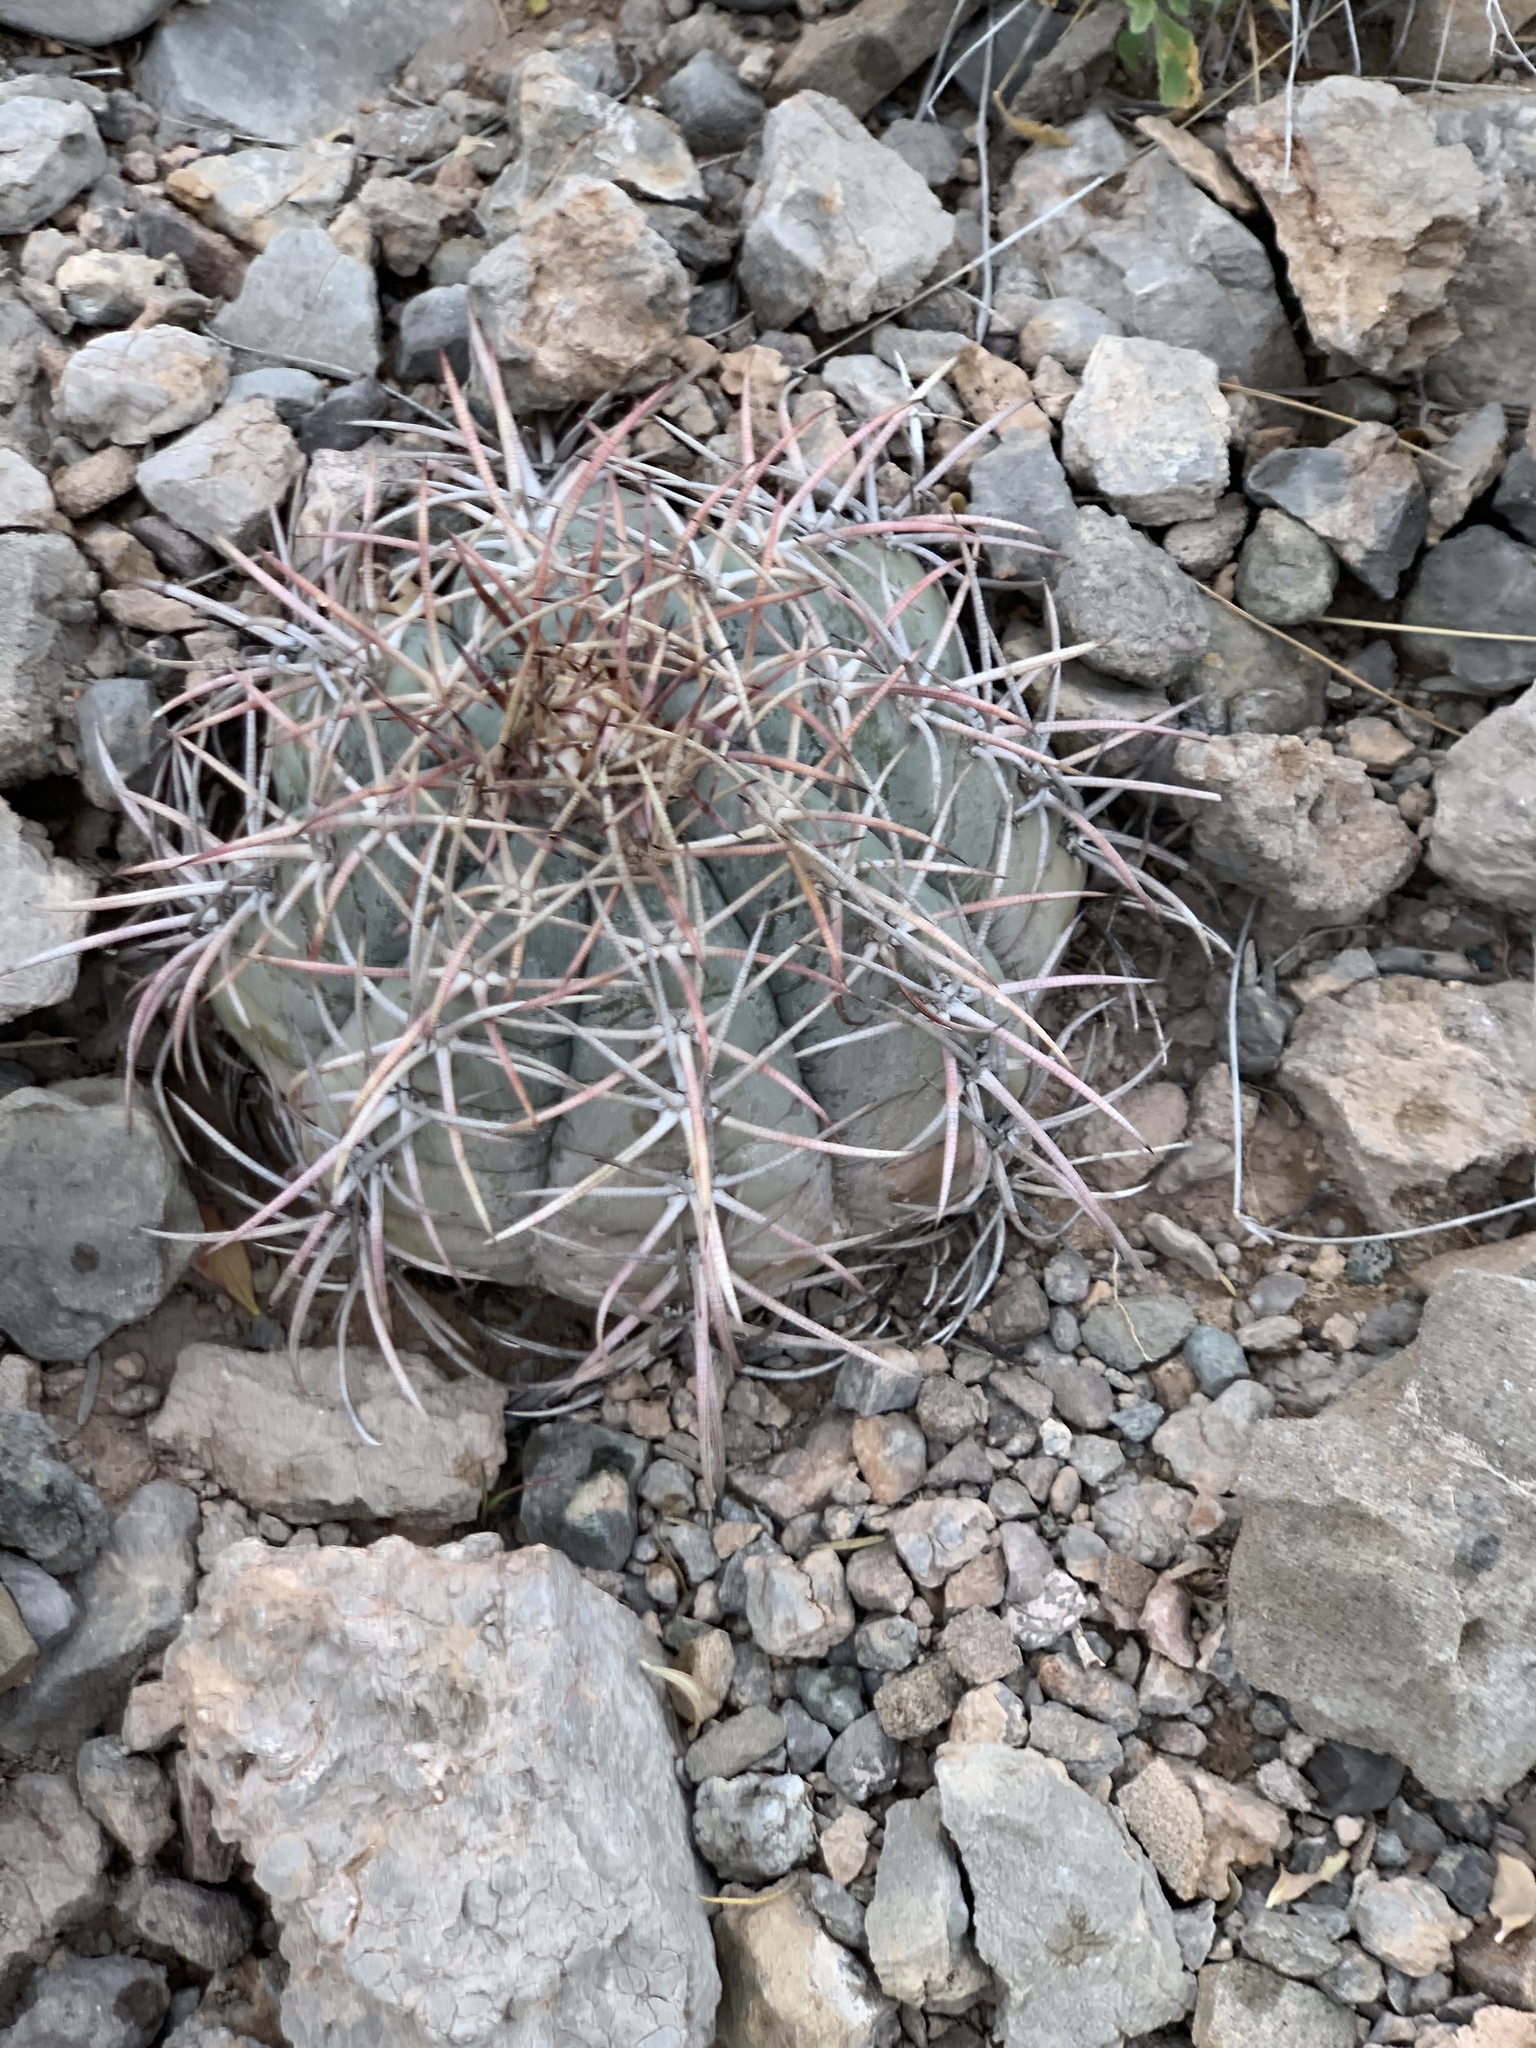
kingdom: Plantae
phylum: Tracheophyta
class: Magnoliopsida
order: Caryophyllales
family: Cactaceae
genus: Echinocactus
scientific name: Echinocactus horizonthalonius
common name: Devilshead
